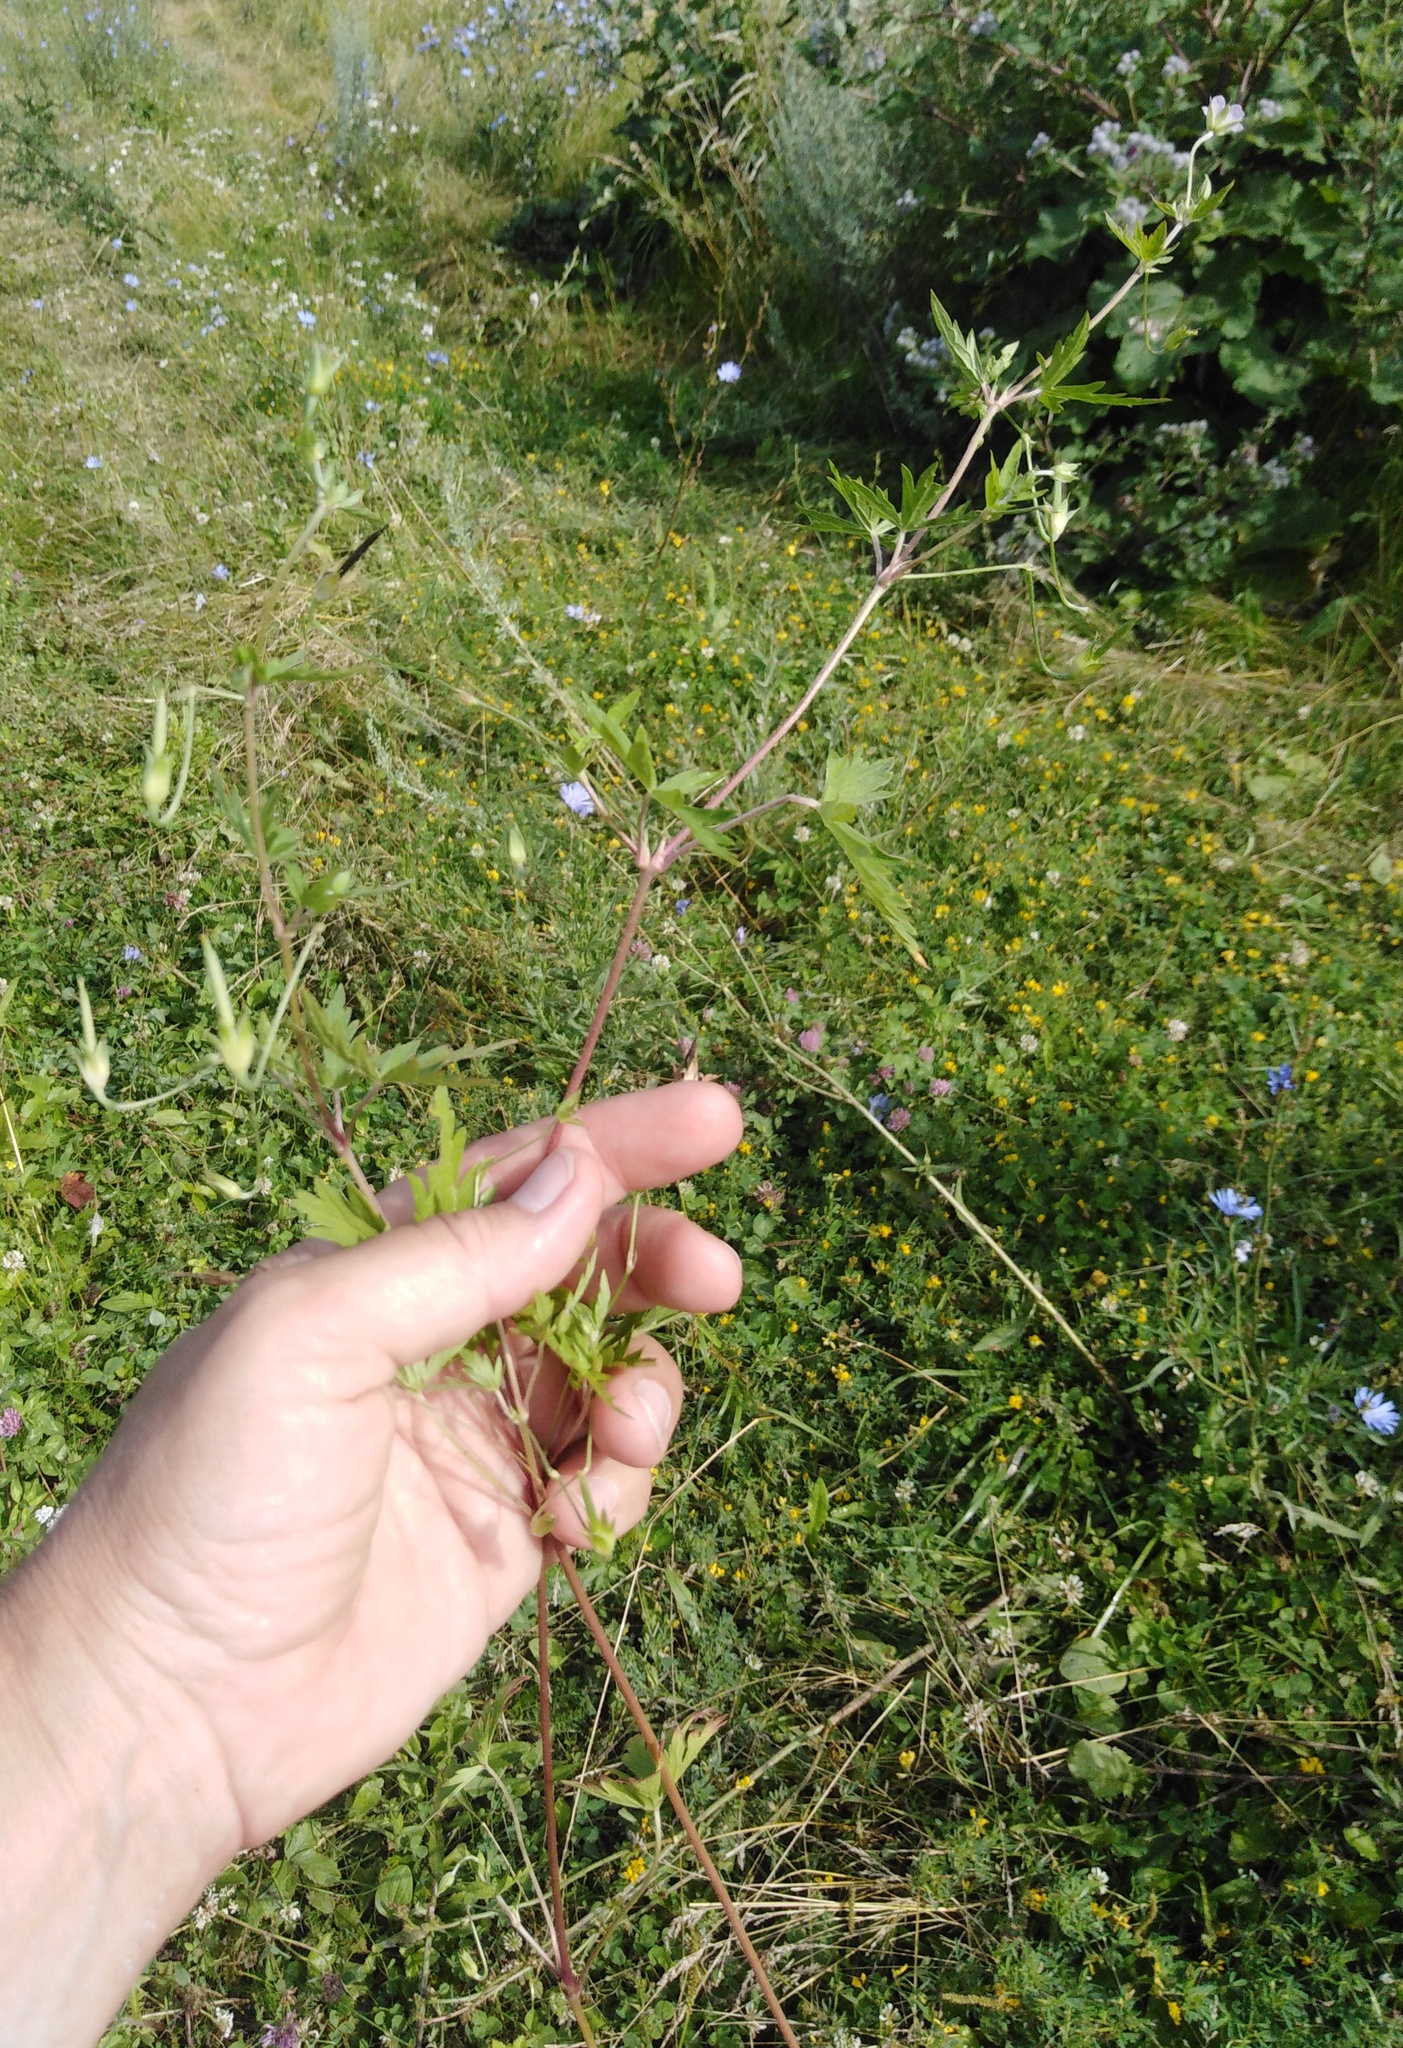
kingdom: Plantae
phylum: Tracheophyta
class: Magnoliopsida
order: Geraniales
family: Geraniaceae
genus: Geranium
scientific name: Geranium sibiricum
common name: Siberian crane's-bill
